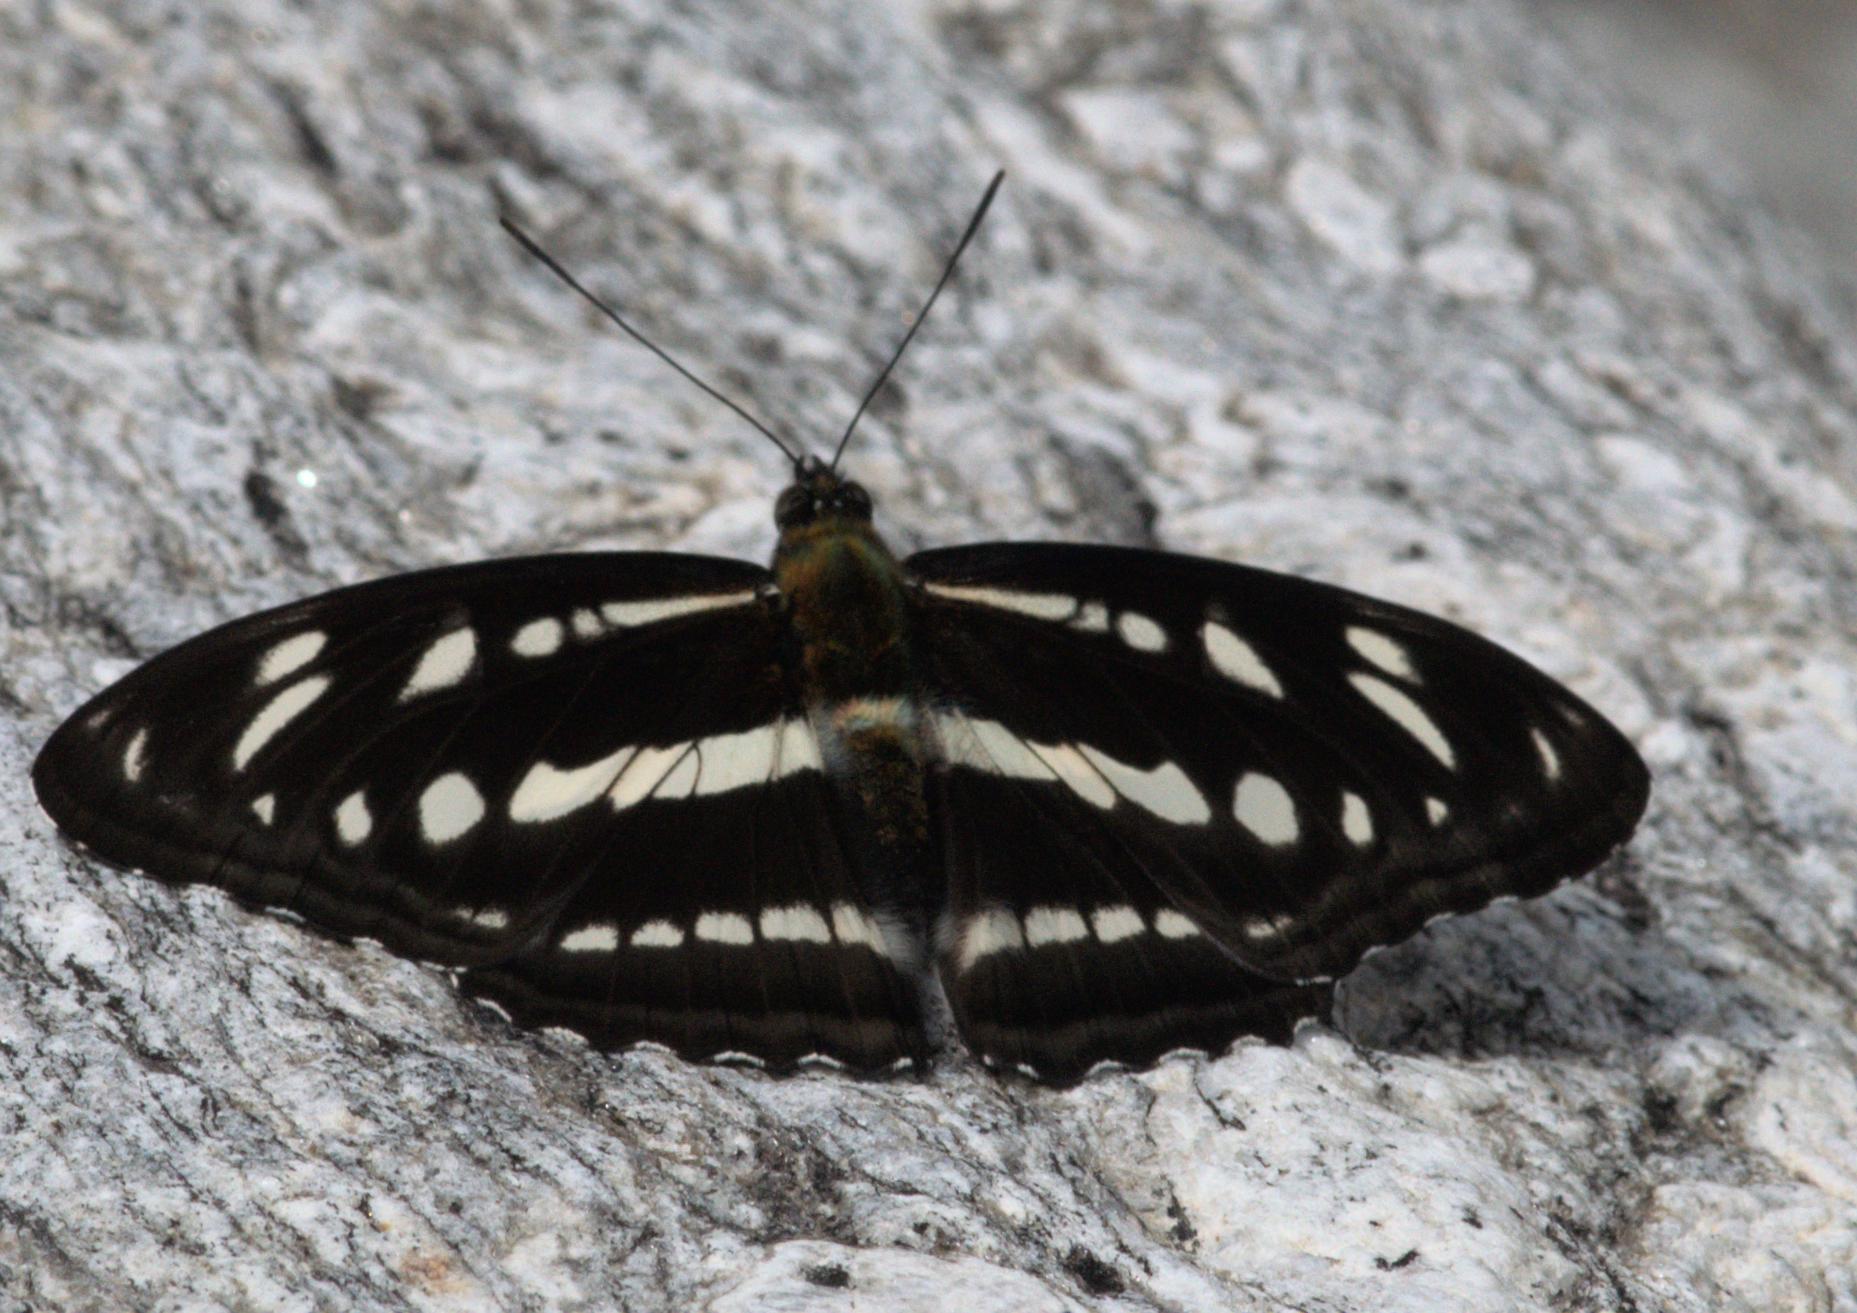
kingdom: Animalia
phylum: Arthropoda
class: Insecta
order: Lepidoptera
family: Nymphalidae
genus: Parathyma
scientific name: Parathyma opalina
